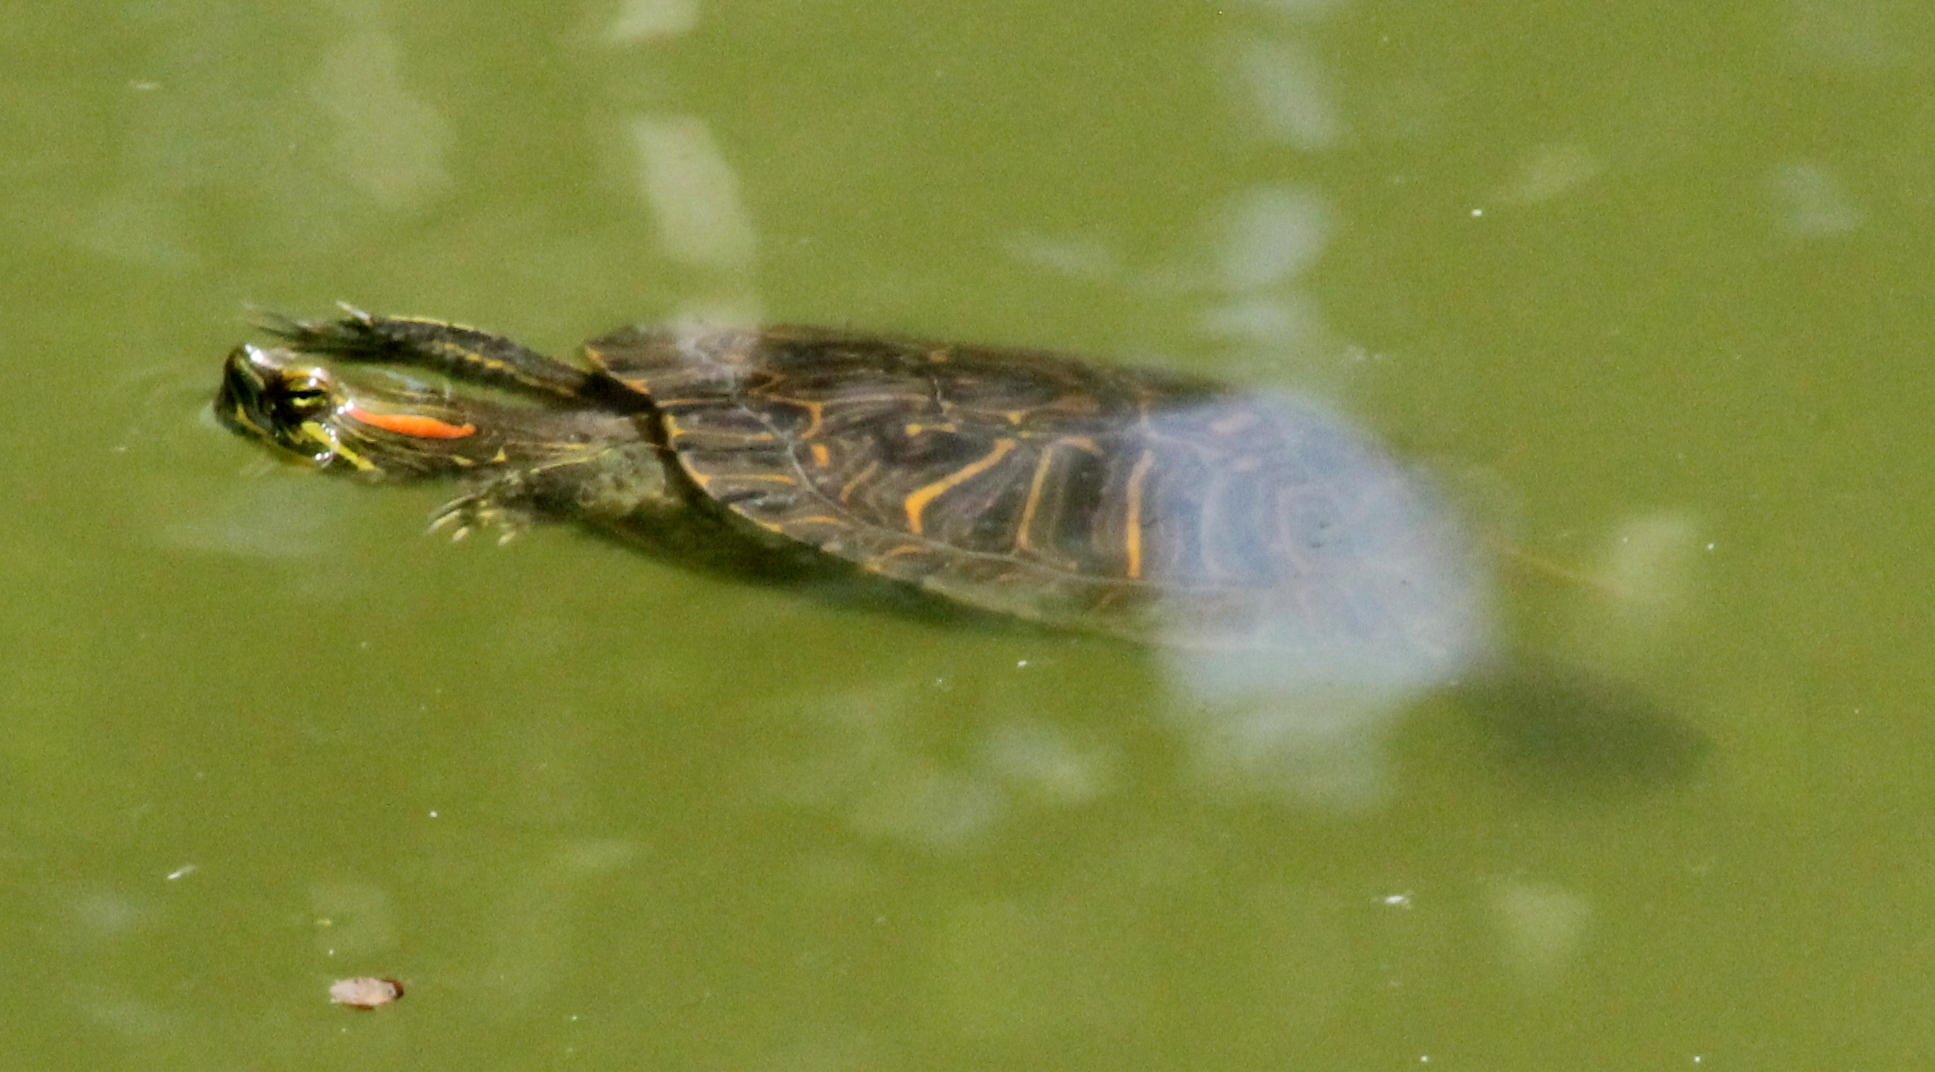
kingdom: Animalia
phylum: Chordata
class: Testudines
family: Emydidae
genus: Trachemys
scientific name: Trachemys scripta
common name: Slider
